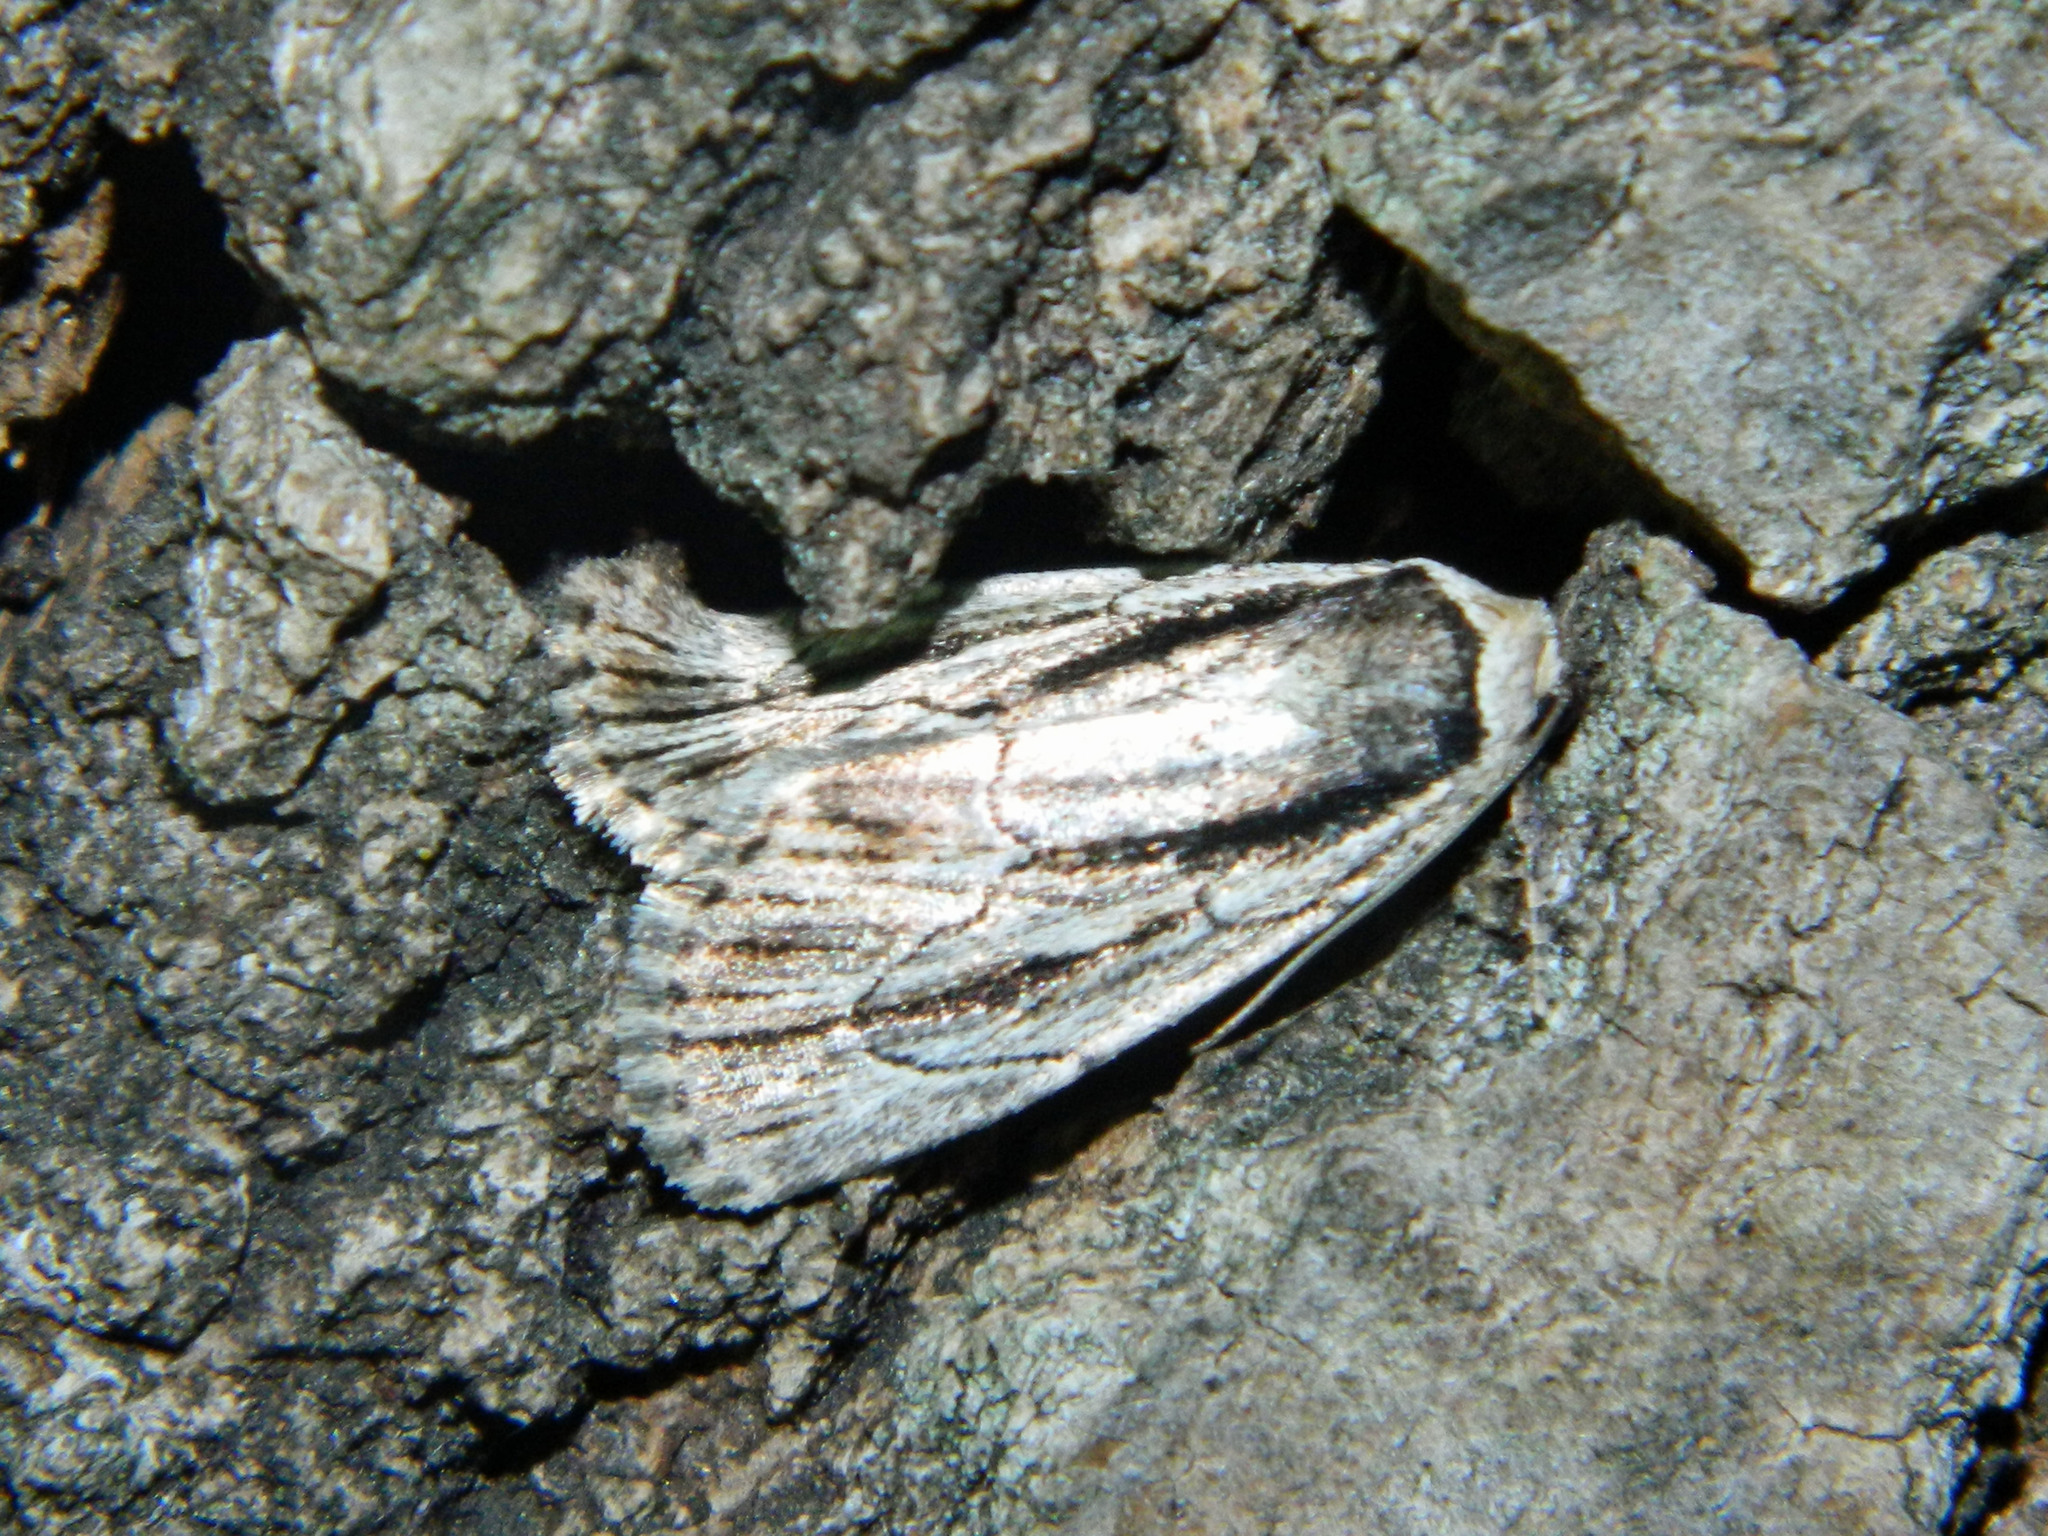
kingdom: Animalia
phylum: Arthropoda
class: Insecta
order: Lepidoptera
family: Noctuidae
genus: Sympistis
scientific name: Sympistis badistriga
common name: Brown-lined sallow moth
